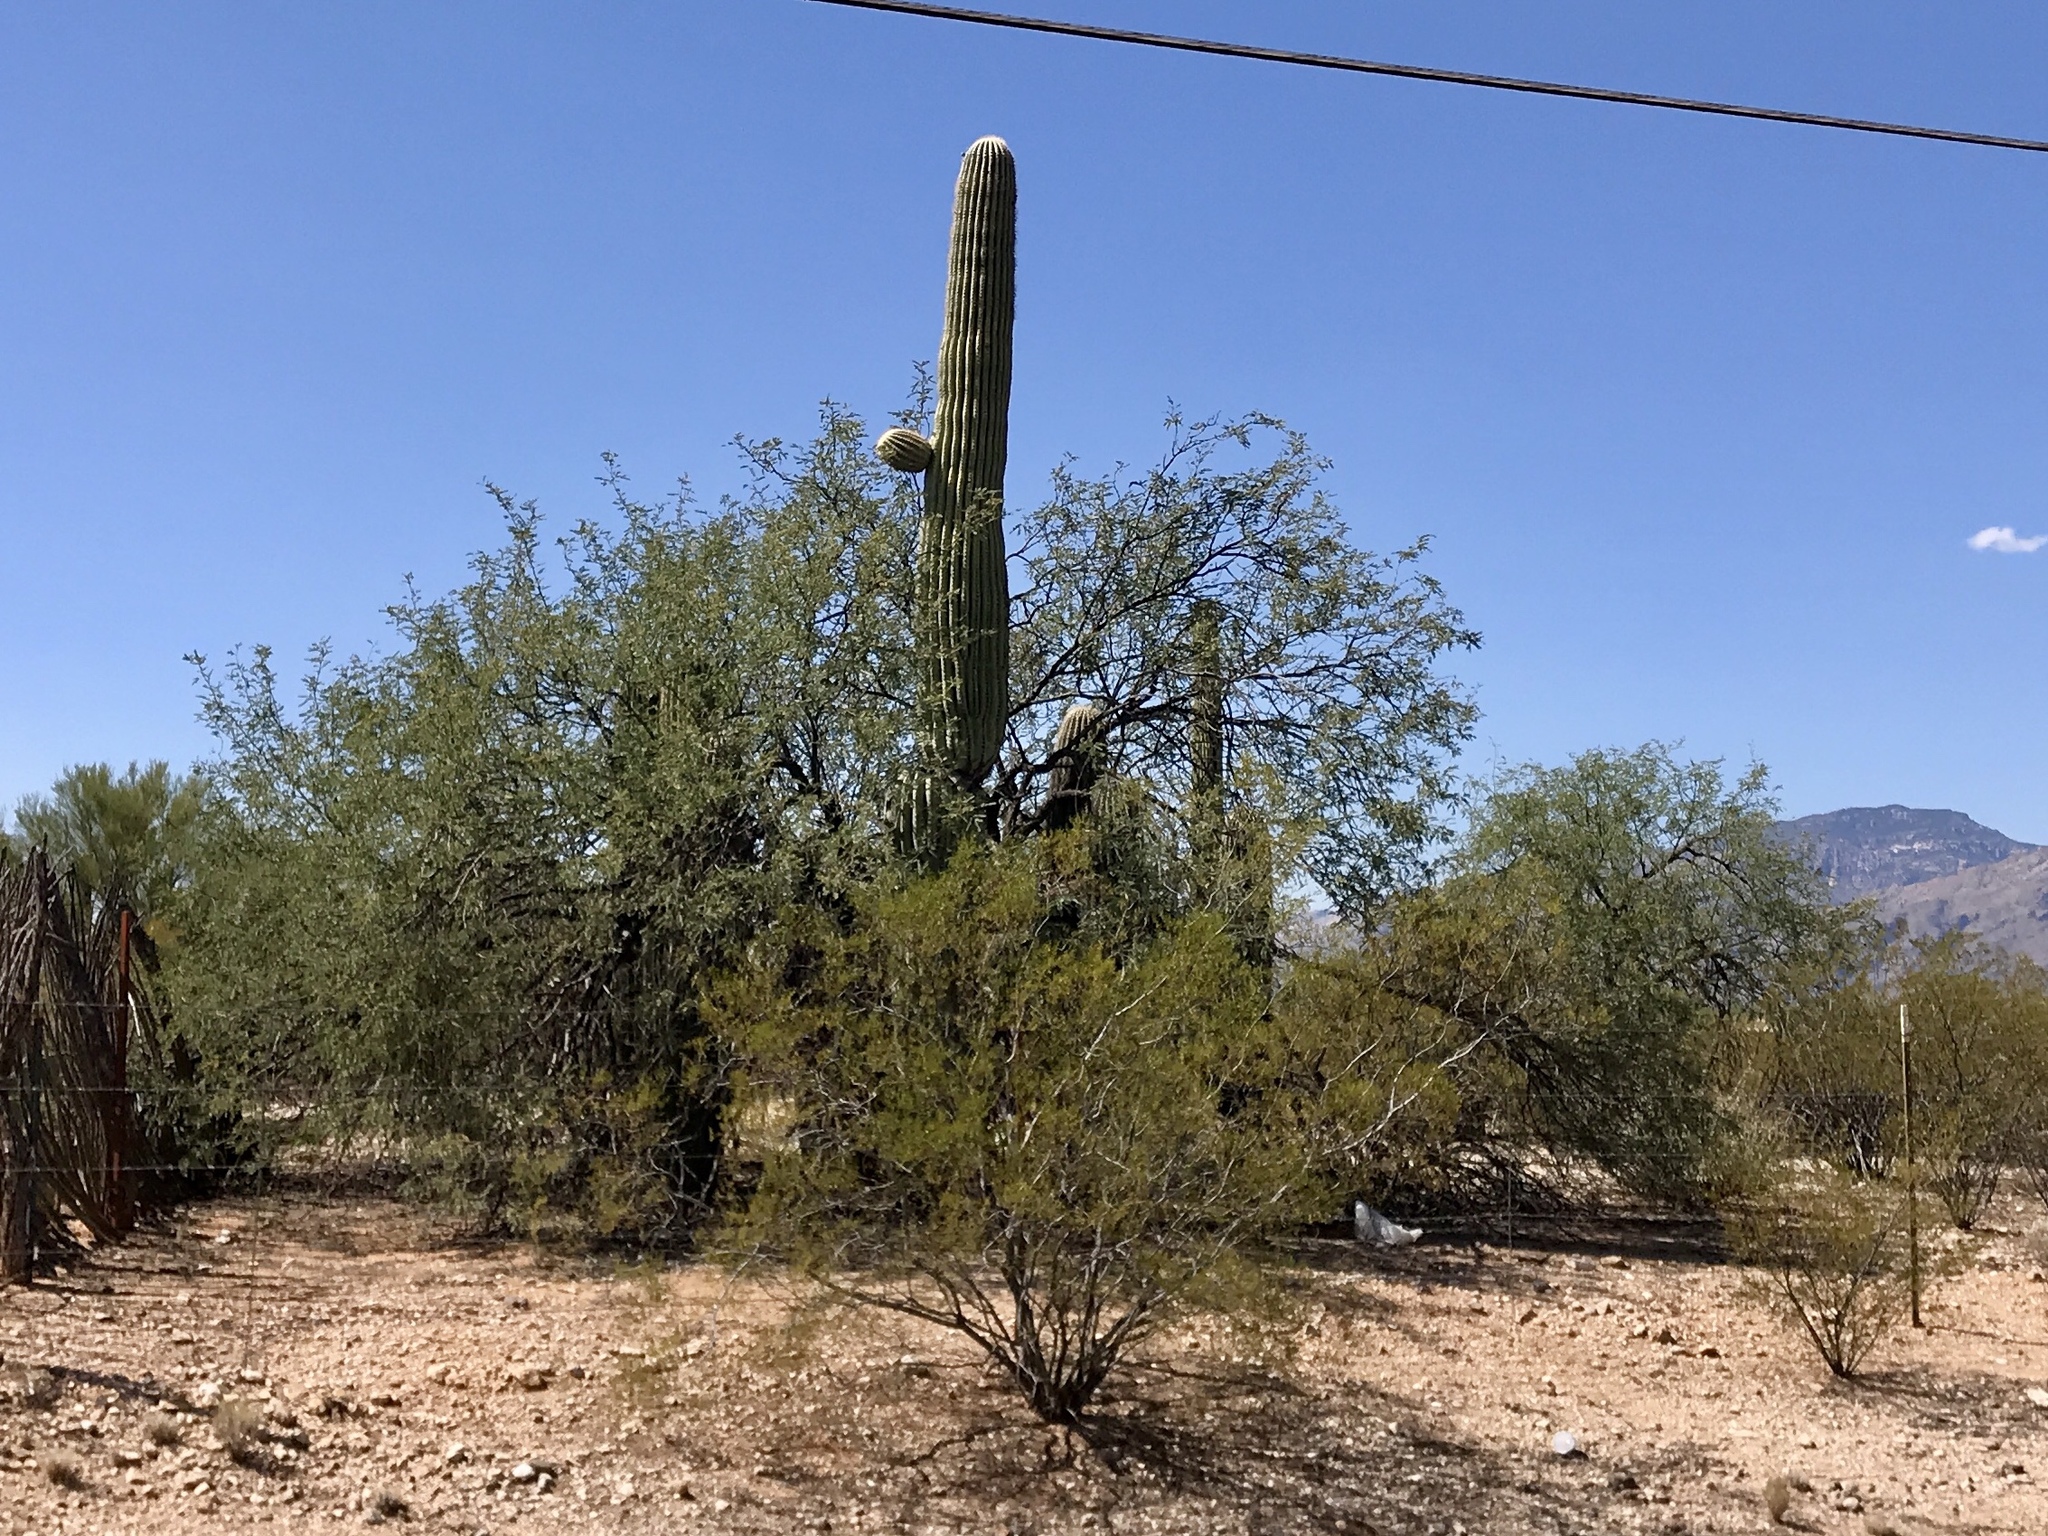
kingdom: Plantae
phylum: Tracheophyta
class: Magnoliopsida
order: Caryophyllales
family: Cactaceae
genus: Carnegiea
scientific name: Carnegiea gigantea
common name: Saguaro
